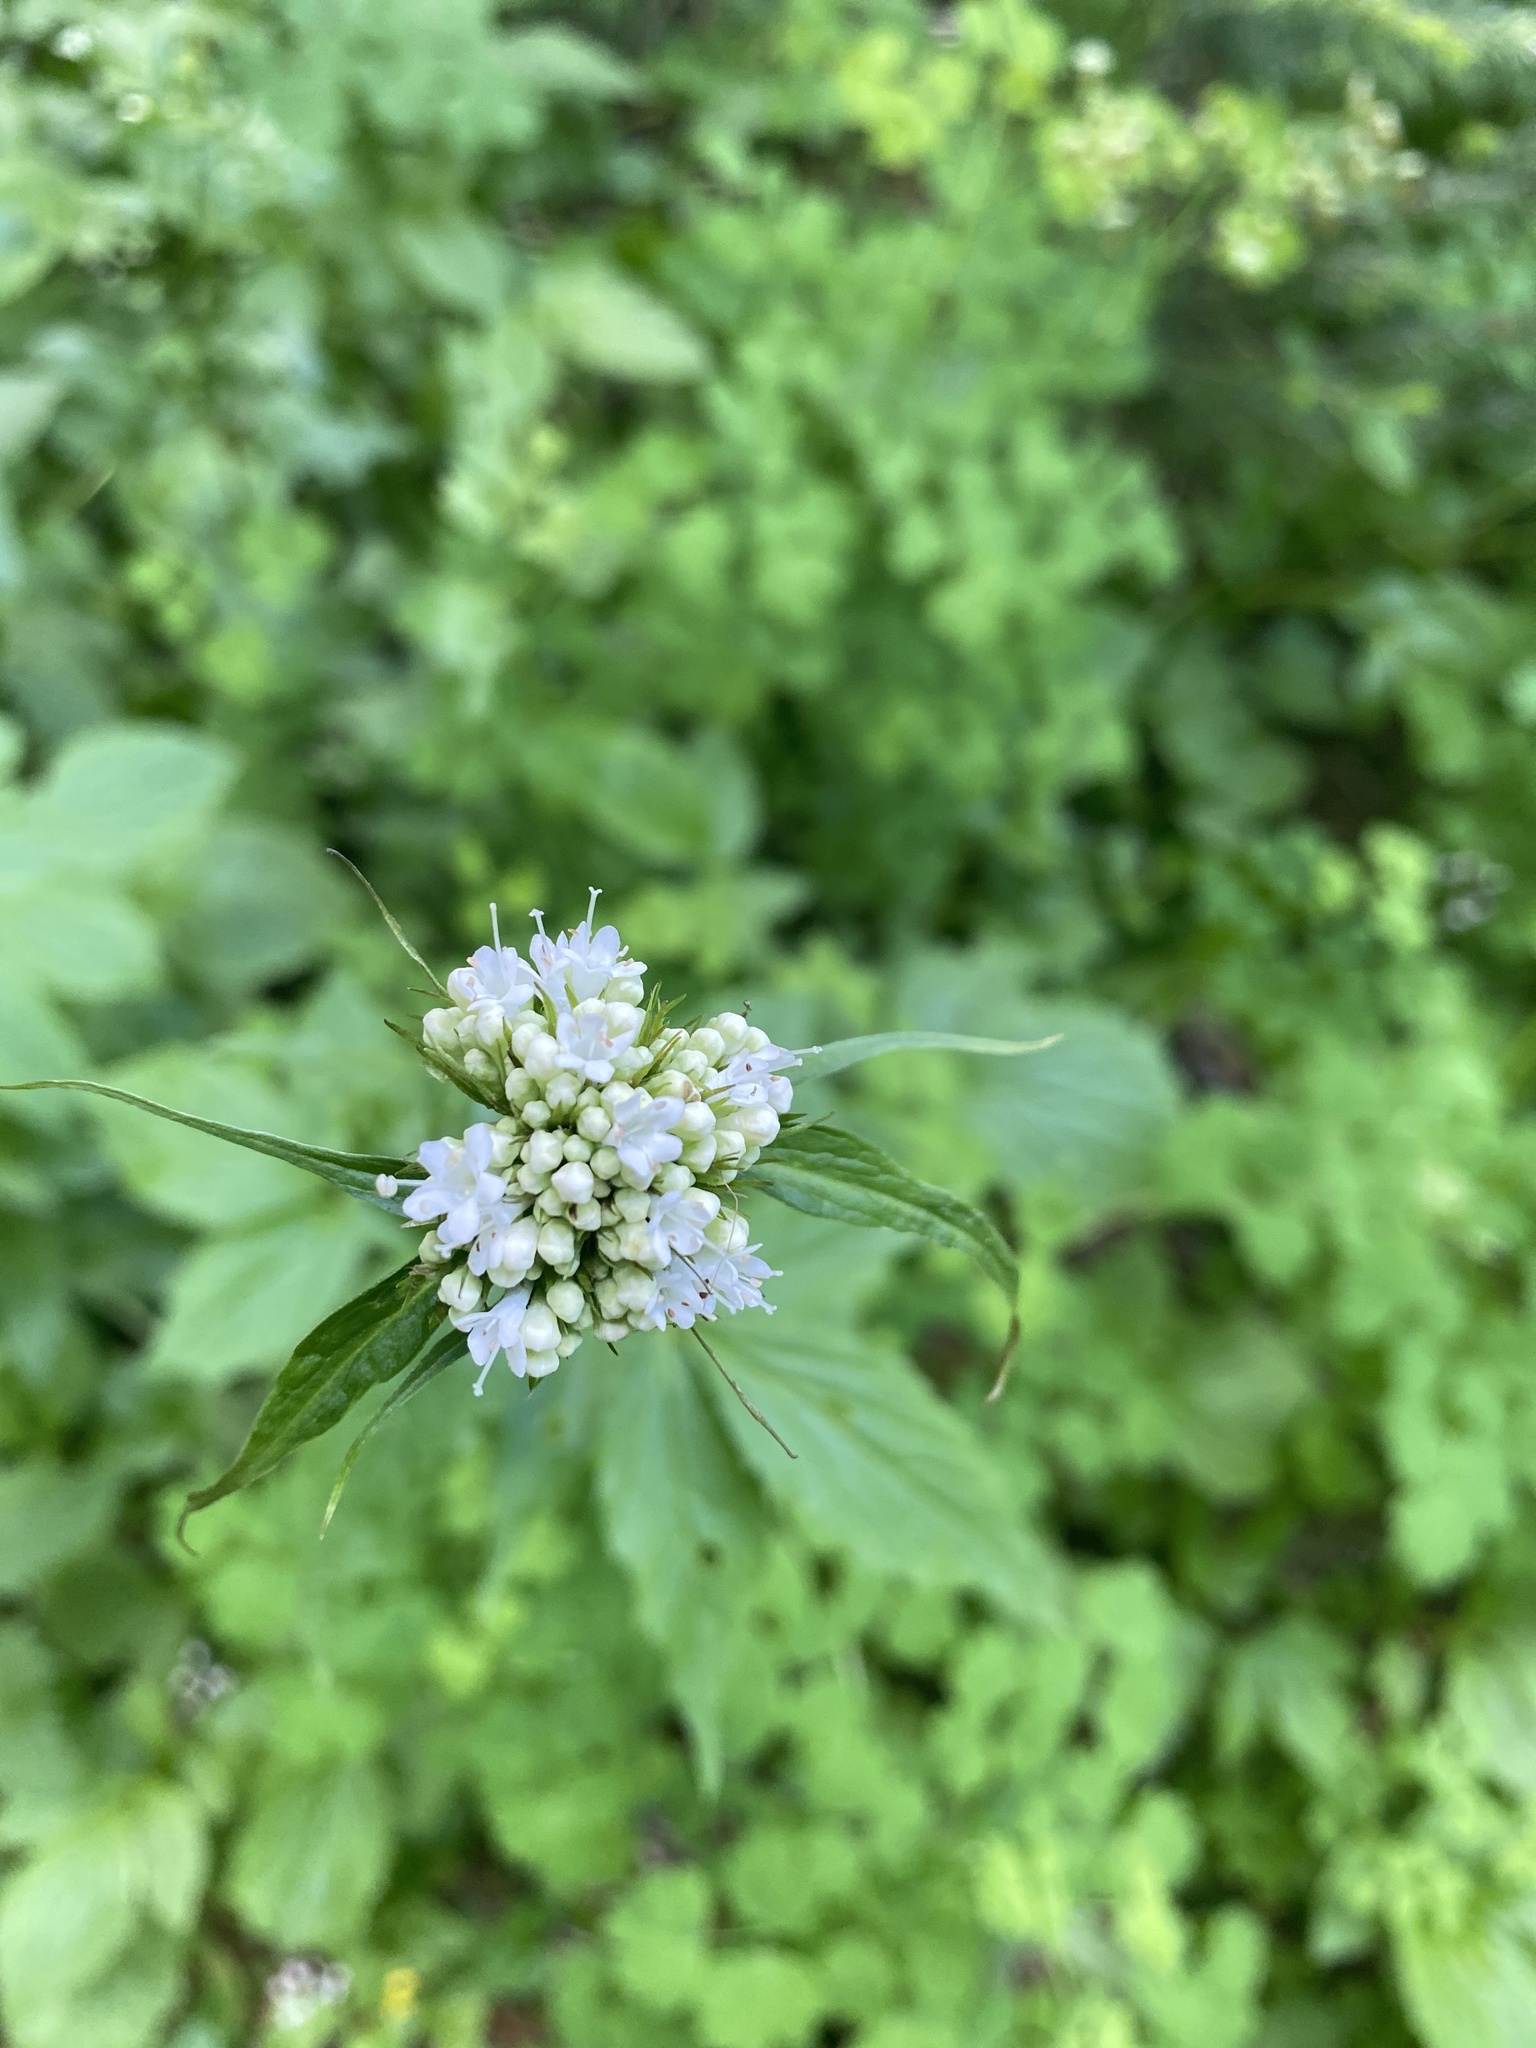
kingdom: Plantae
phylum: Tracheophyta
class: Magnoliopsida
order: Dipsacales
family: Caprifoliaceae
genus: Valeriana
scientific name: Valeriana sitchensis
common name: Pacific valerian
